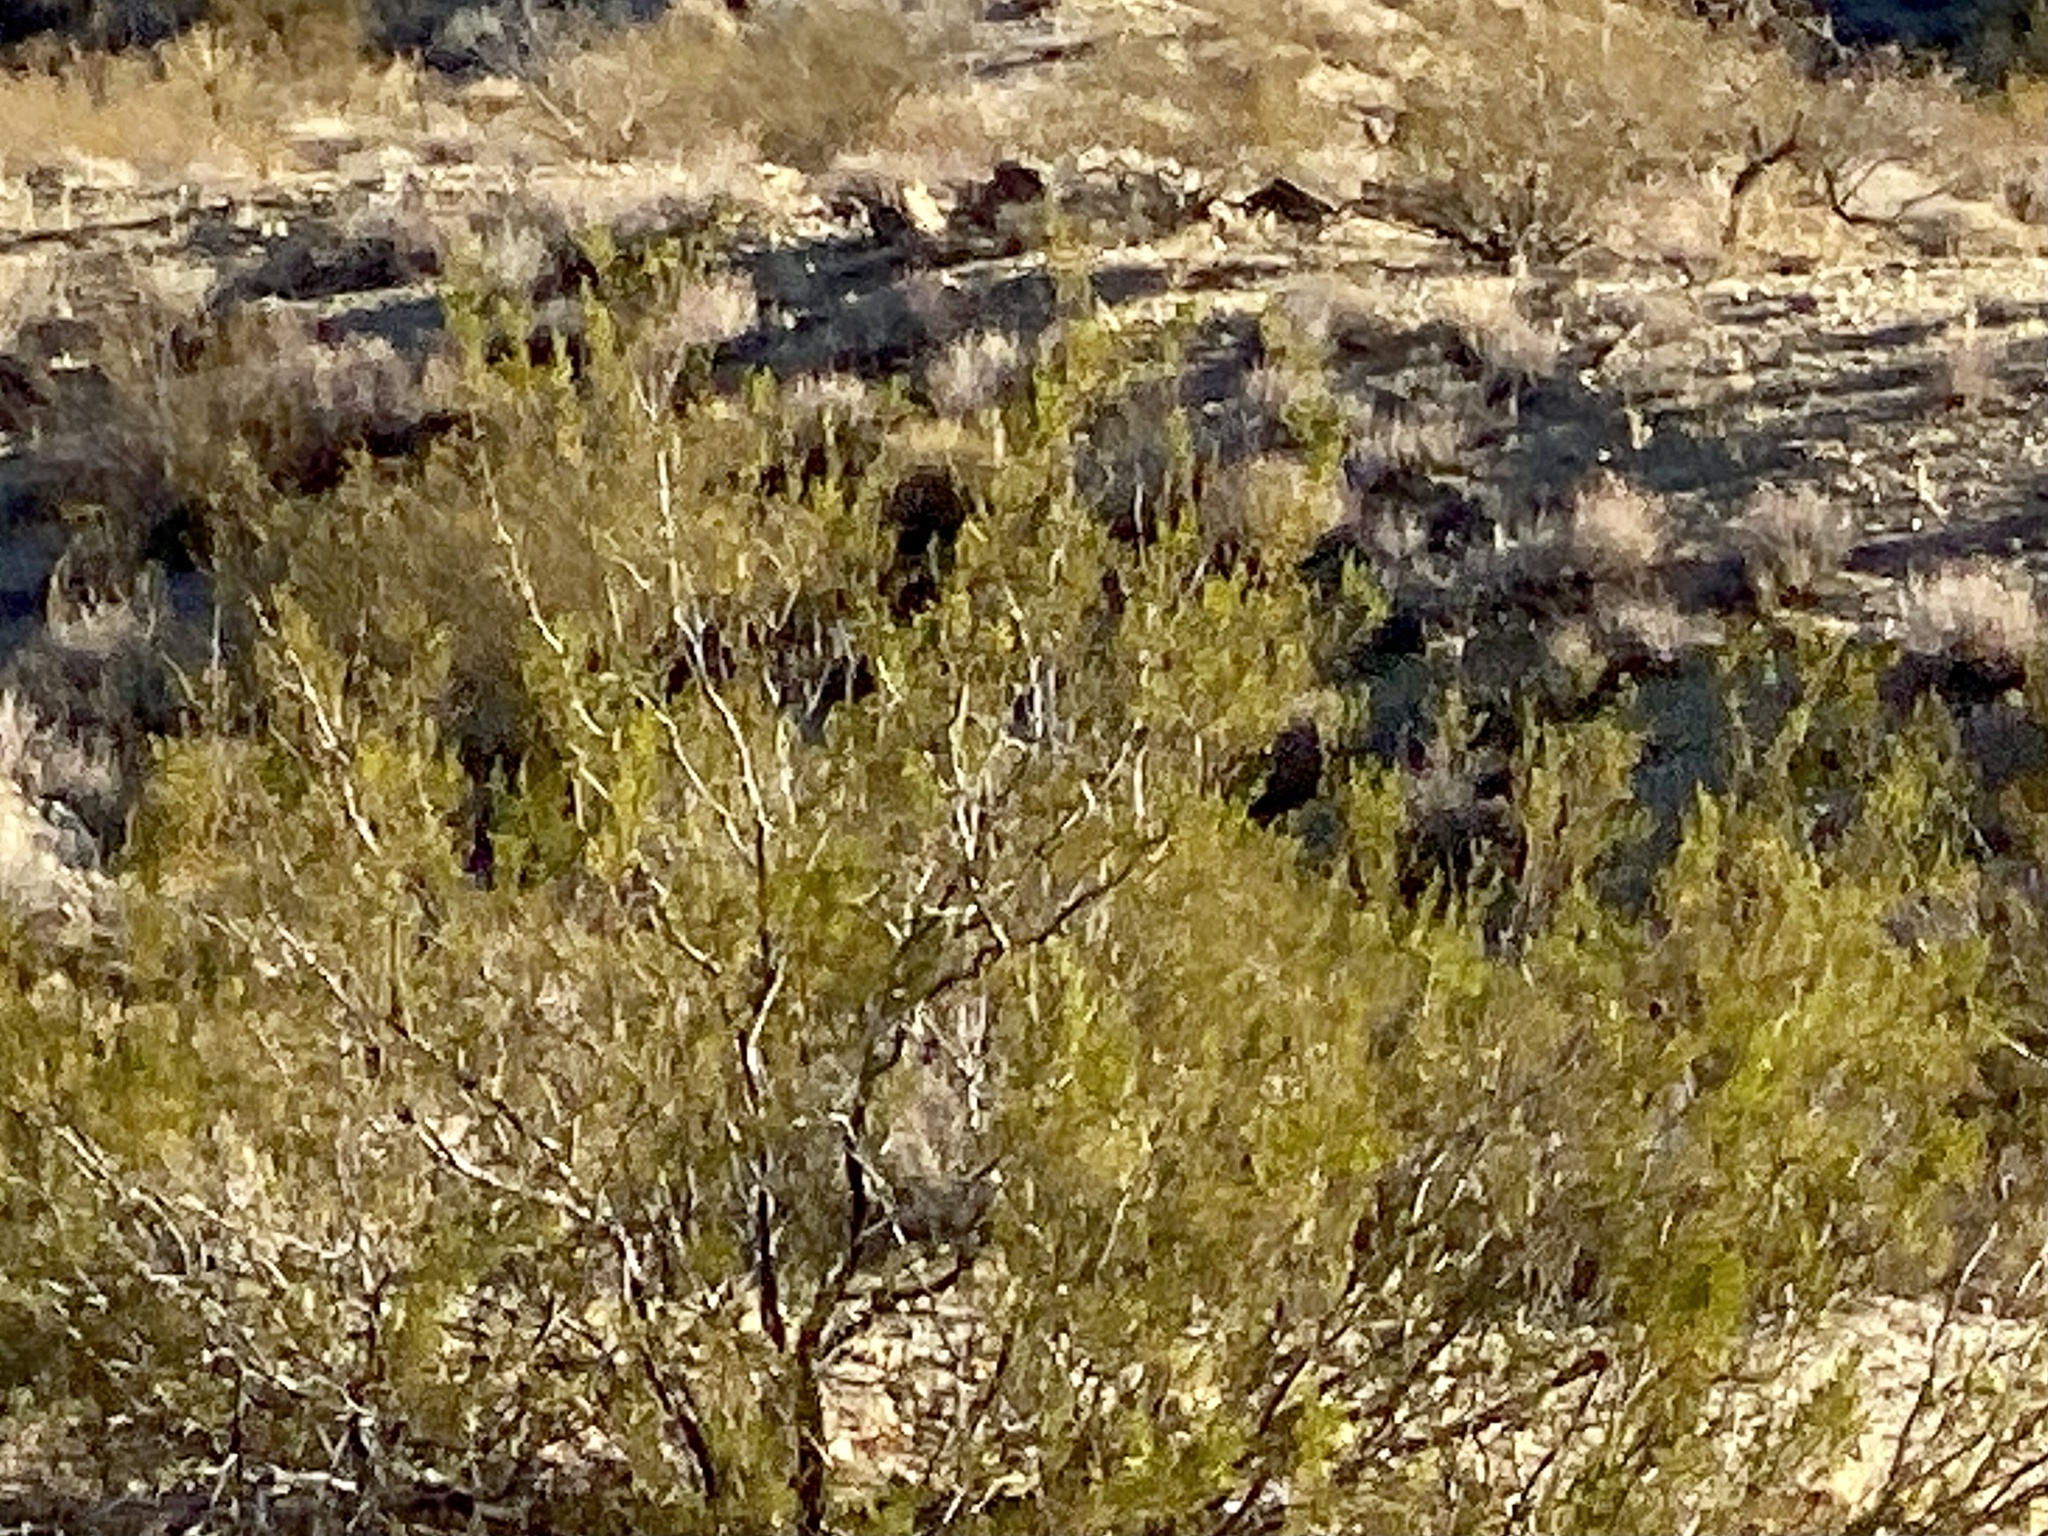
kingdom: Plantae
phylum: Tracheophyta
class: Magnoliopsida
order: Zygophyllales
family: Zygophyllaceae
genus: Larrea
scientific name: Larrea tridentata
